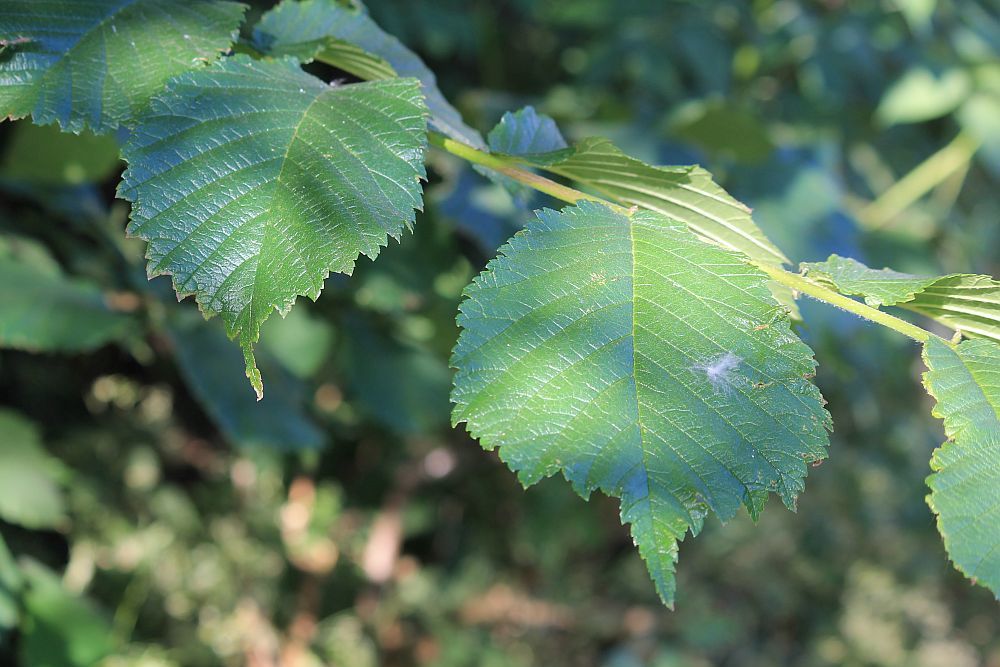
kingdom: Plantae
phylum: Tracheophyta
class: Magnoliopsida
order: Rosales
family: Ulmaceae
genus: Ulmus
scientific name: Ulmus glabra
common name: Wych elm
